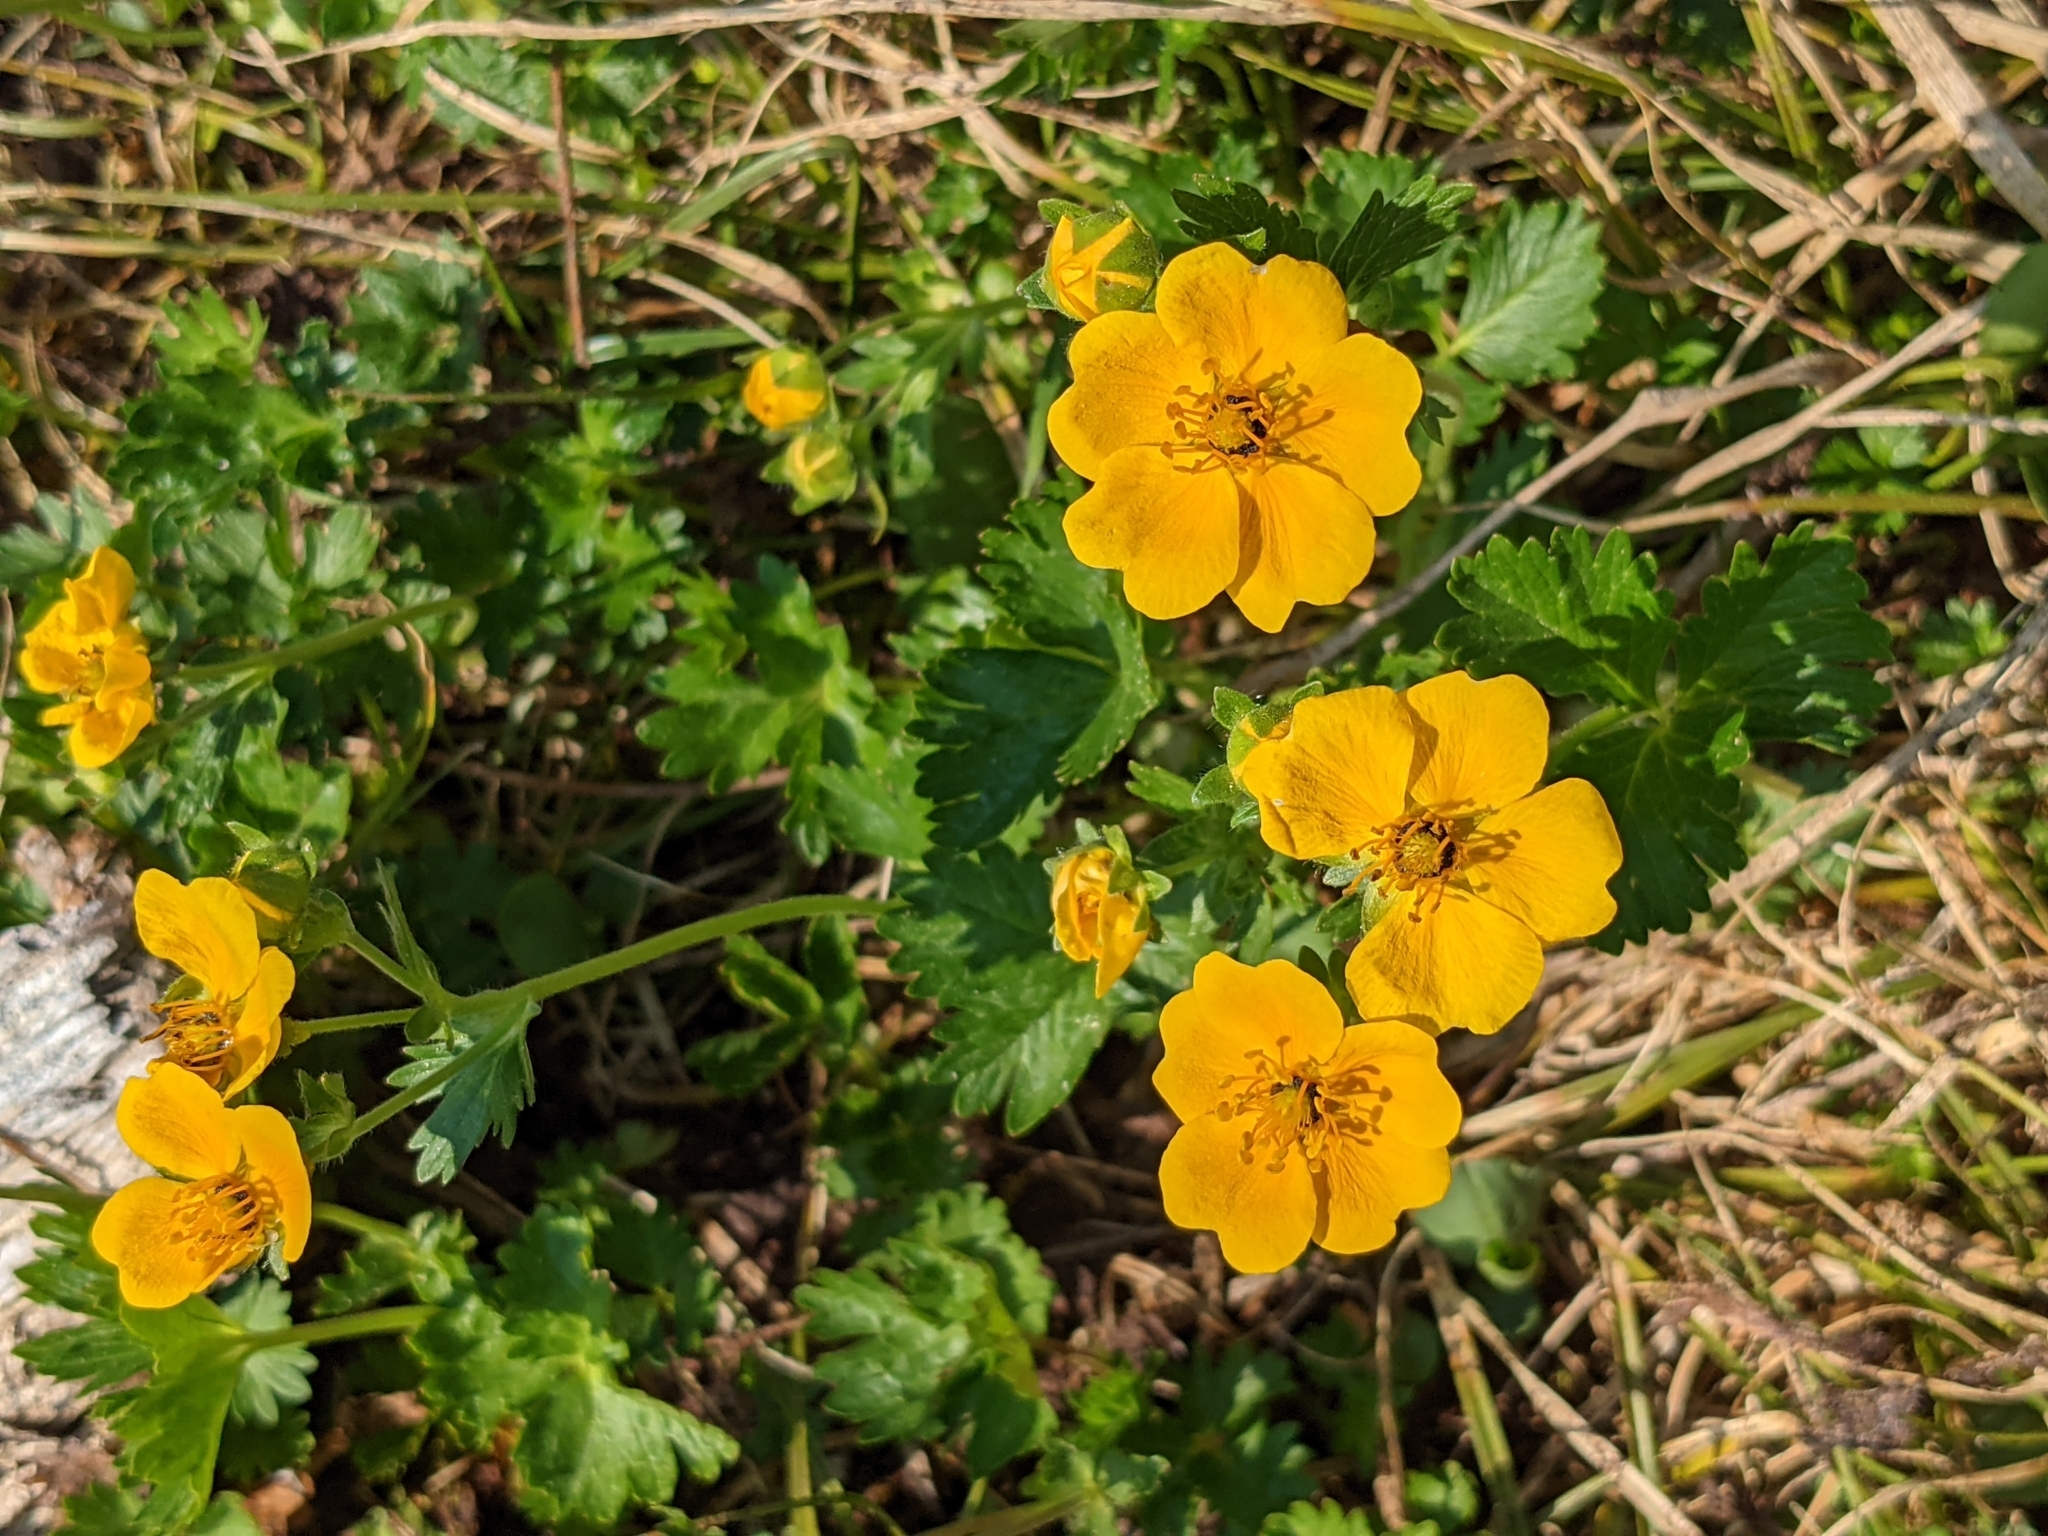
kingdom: Plantae
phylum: Tracheophyta
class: Magnoliopsida
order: Rosales
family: Rosaceae
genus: Potentilla
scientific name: Potentilla flabellifolia
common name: Mount rainier cinquefoil
